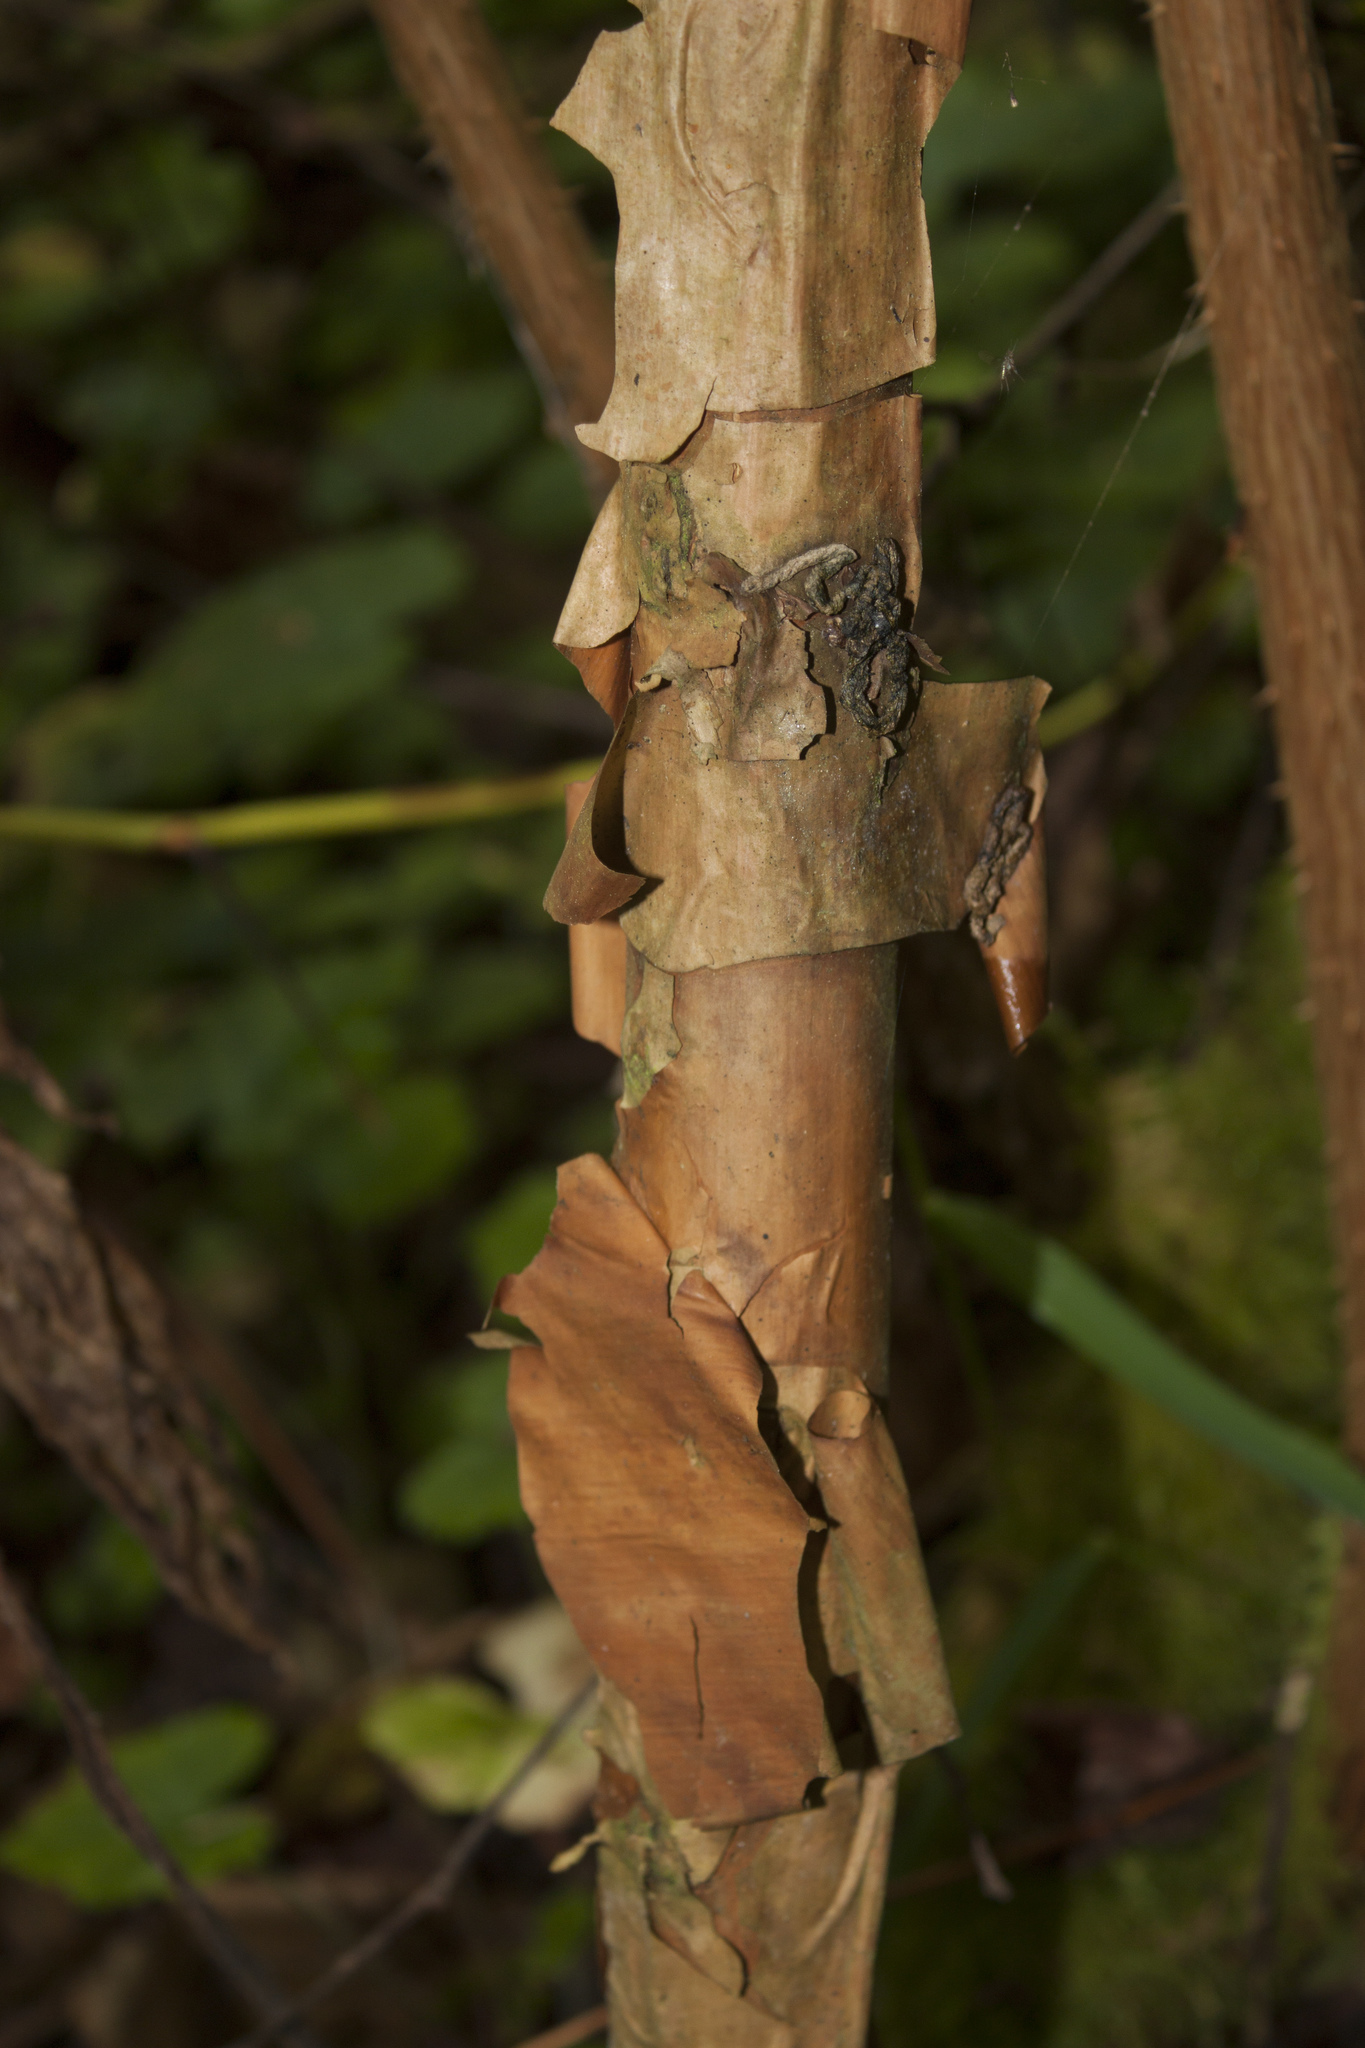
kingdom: Plantae
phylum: Tracheophyta
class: Magnoliopsida
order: Rosales
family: Rosaceae
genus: Rubus
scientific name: Rubus spectabilis
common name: Salmonberry
